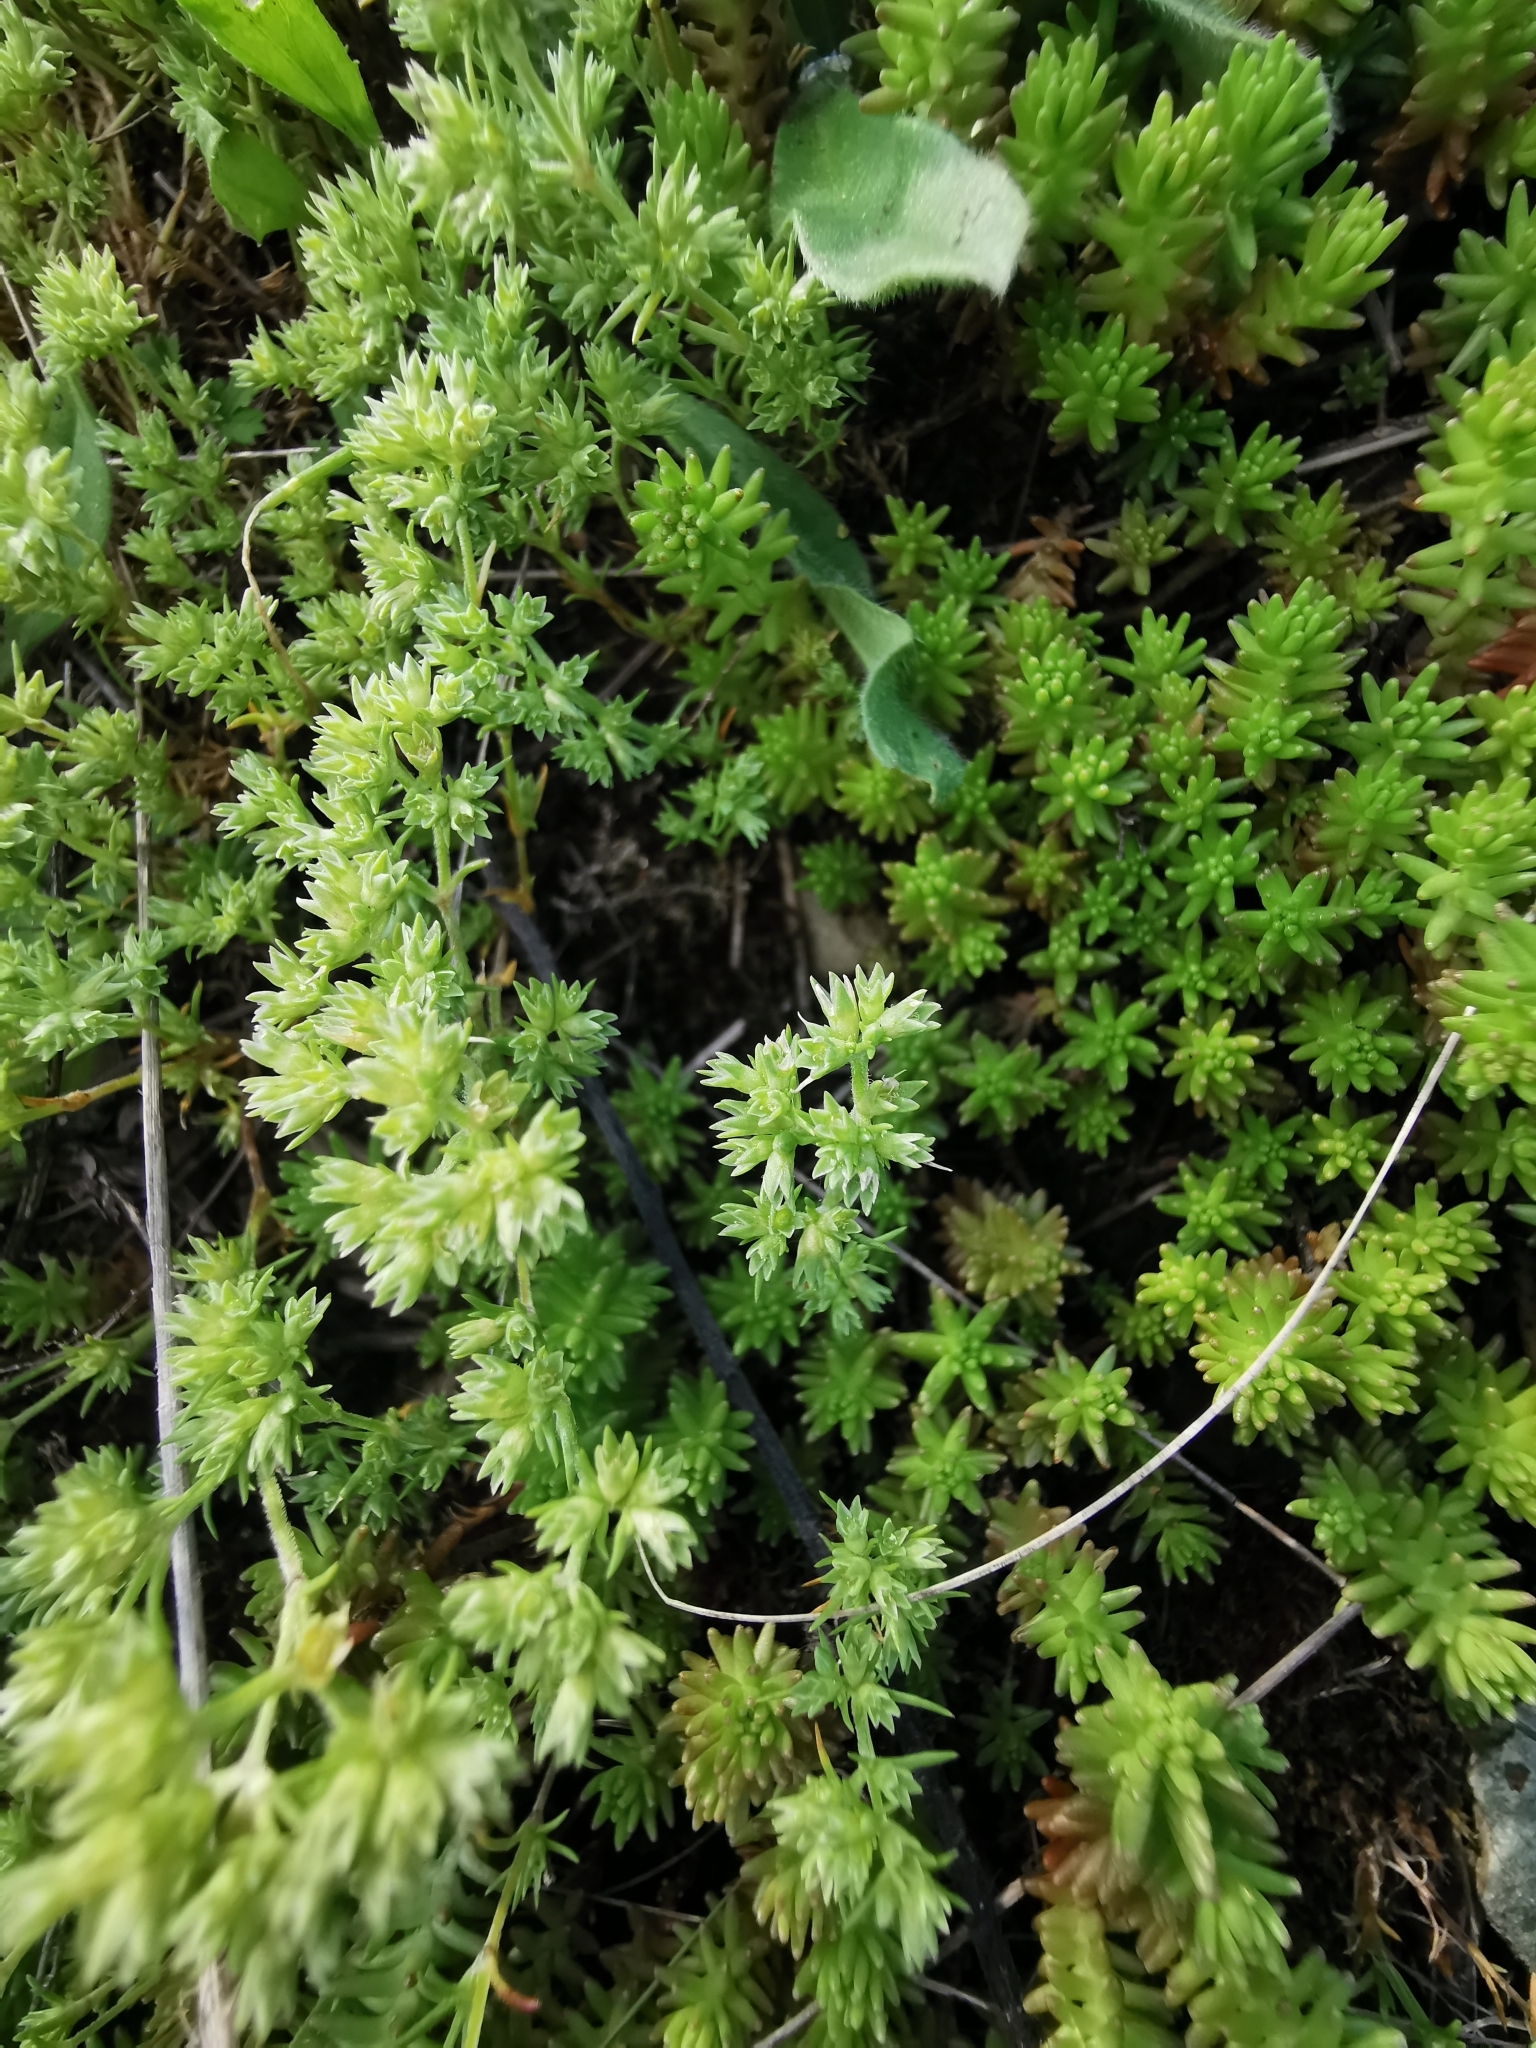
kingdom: Plantae
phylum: Tracheophyta
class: Magnoliopsida
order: Saxifragales
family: Crassulaceae
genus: Sedum
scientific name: Sedum sexangulare
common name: Tasteless stonecrop
